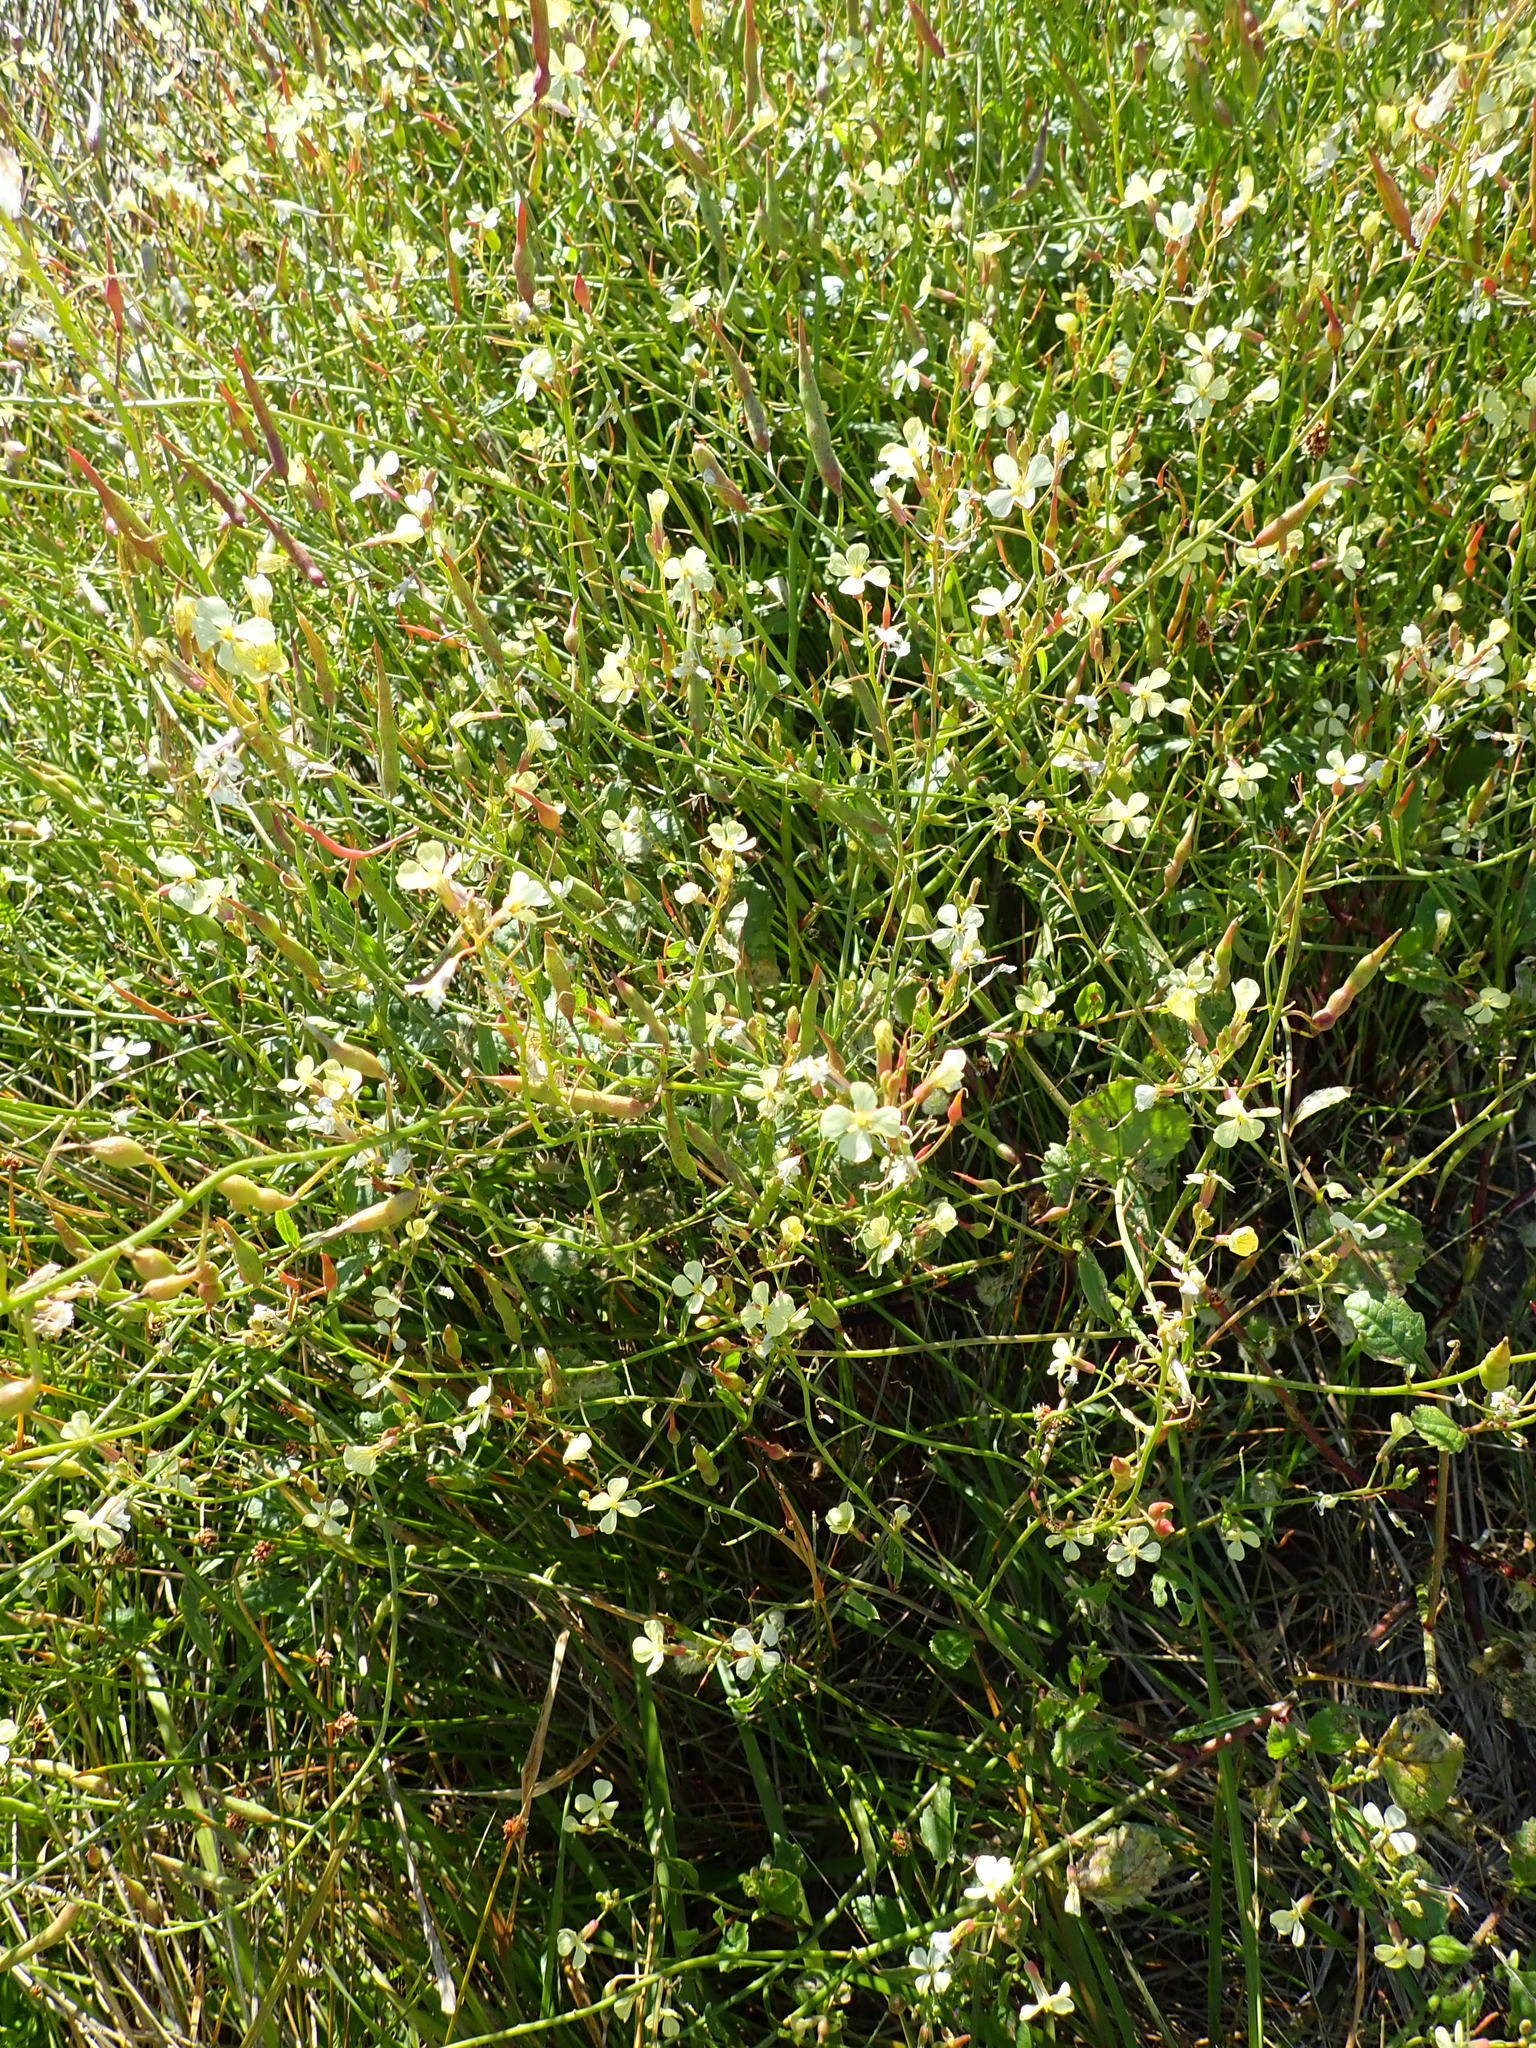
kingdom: Plantae
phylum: Tracheophyta
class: Magnoliopsida
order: Brassicales
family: Brassicaceae
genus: Raphanus
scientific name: Raphanus raphanistrum
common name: Wild radish
